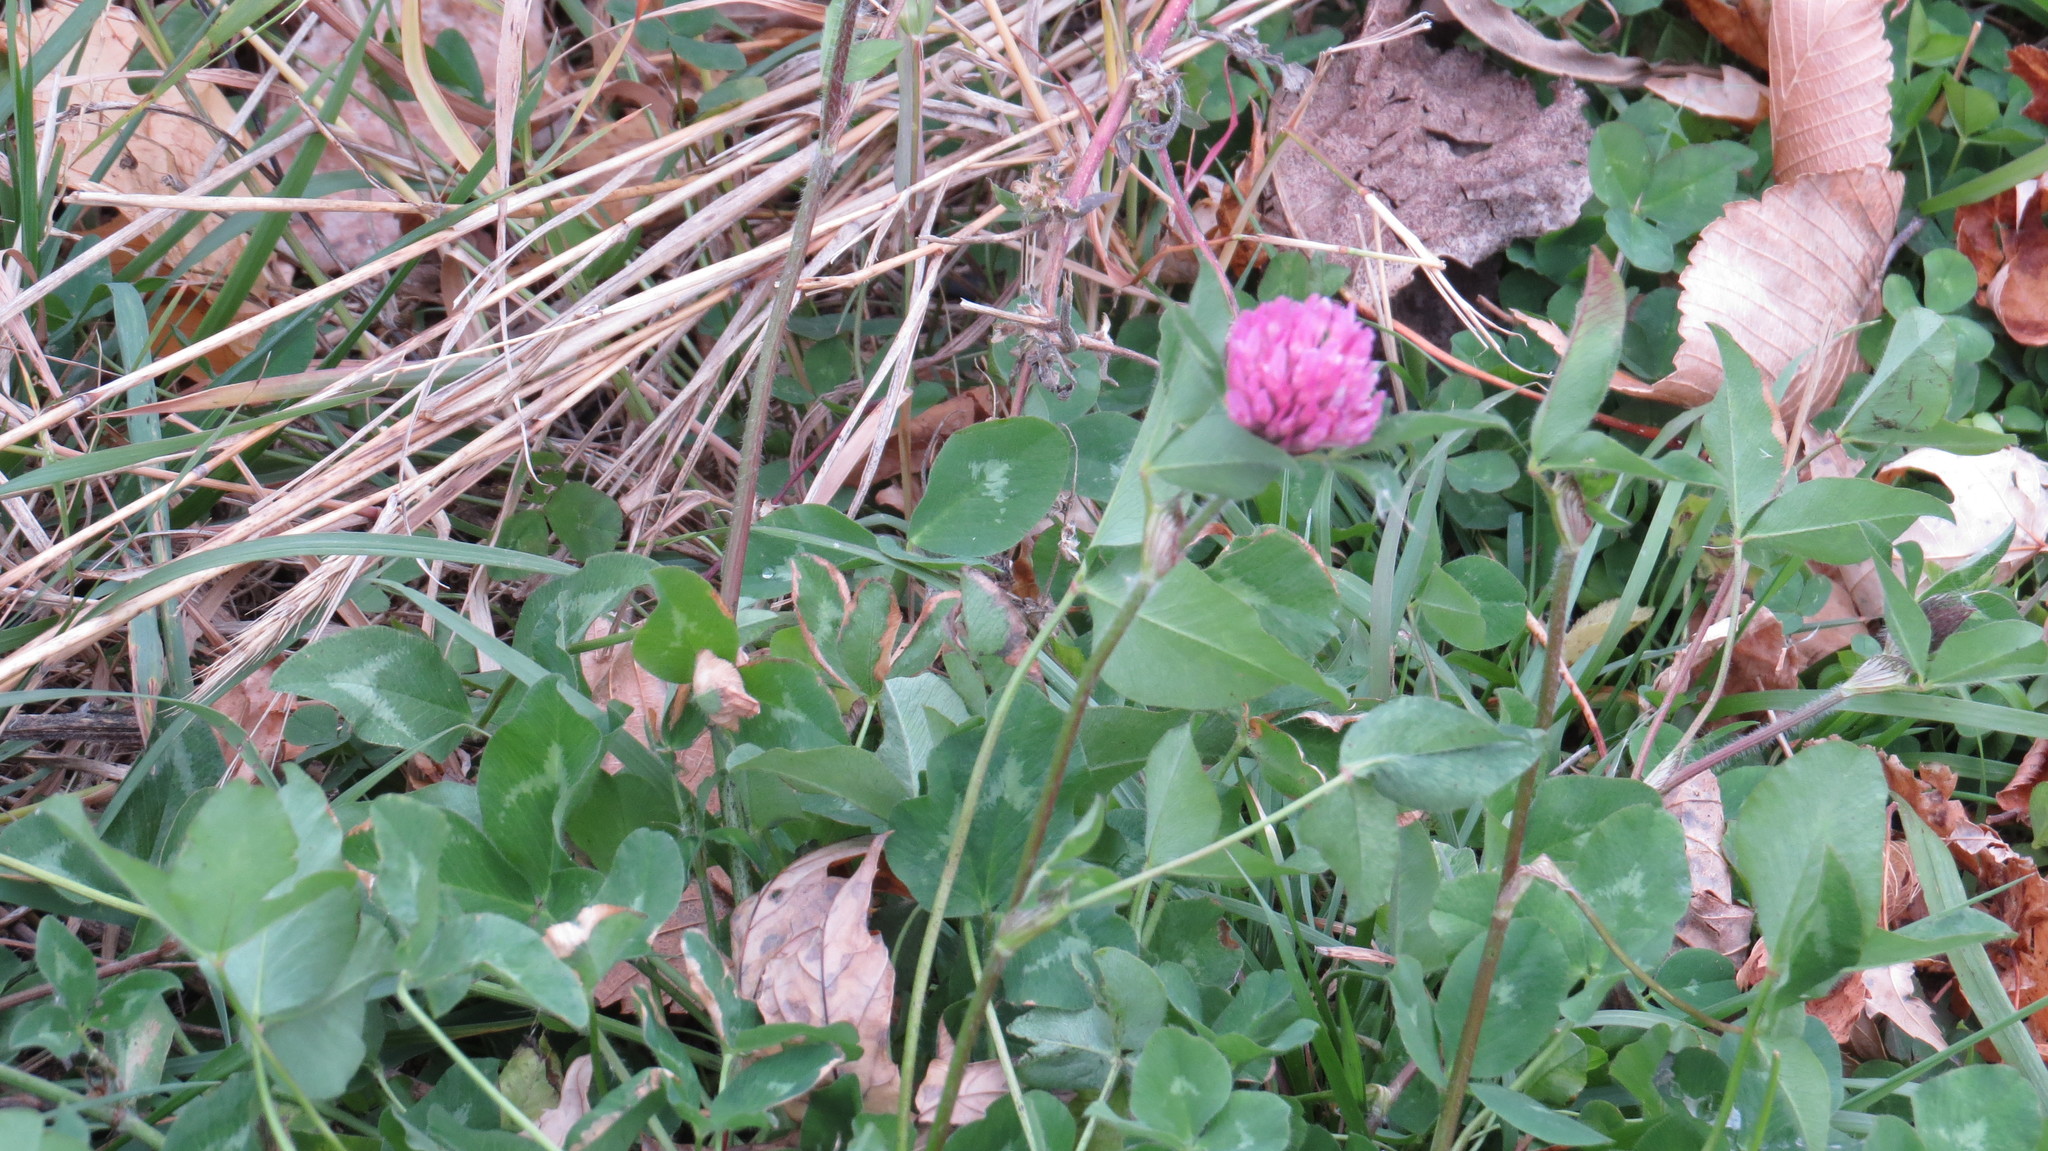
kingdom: Plantae
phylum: Tracheophyta
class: Magnoliopsida
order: Fabales
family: Fabaceae
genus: Trifolium
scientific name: Trifolium pratense
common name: Red clover
